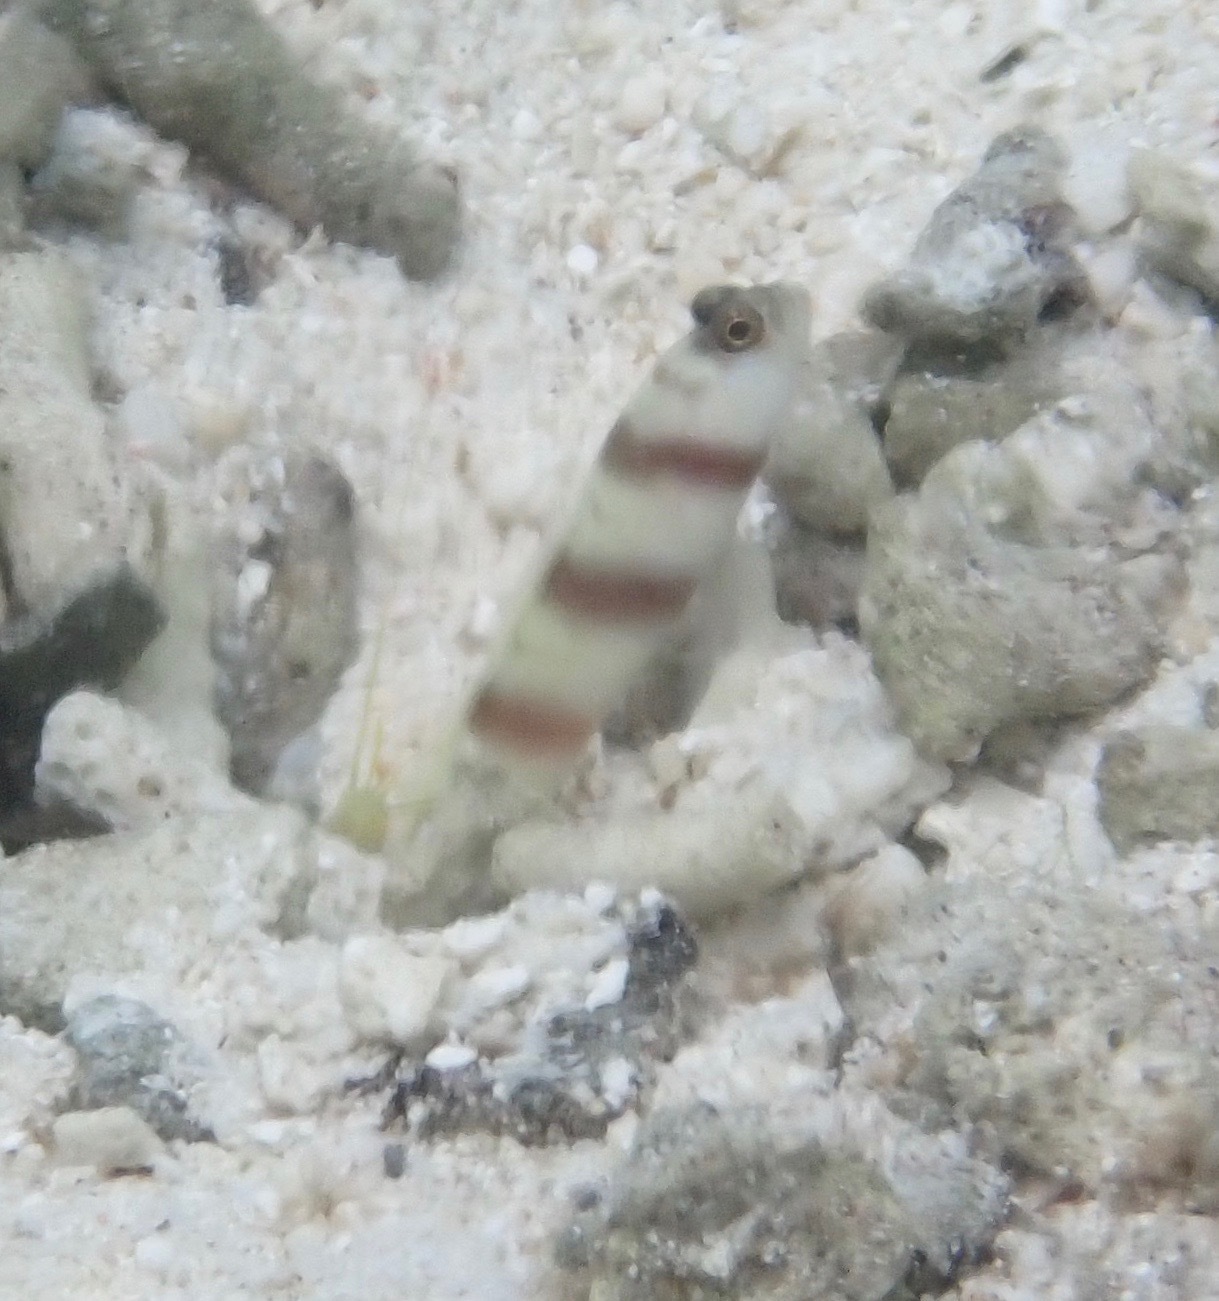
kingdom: Animalia
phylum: Chordata
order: Perciformes
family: Gobiidae
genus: Amblyeleotris
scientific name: Amblyeleotris steinitzi
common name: Steinitz' prawn-goby
